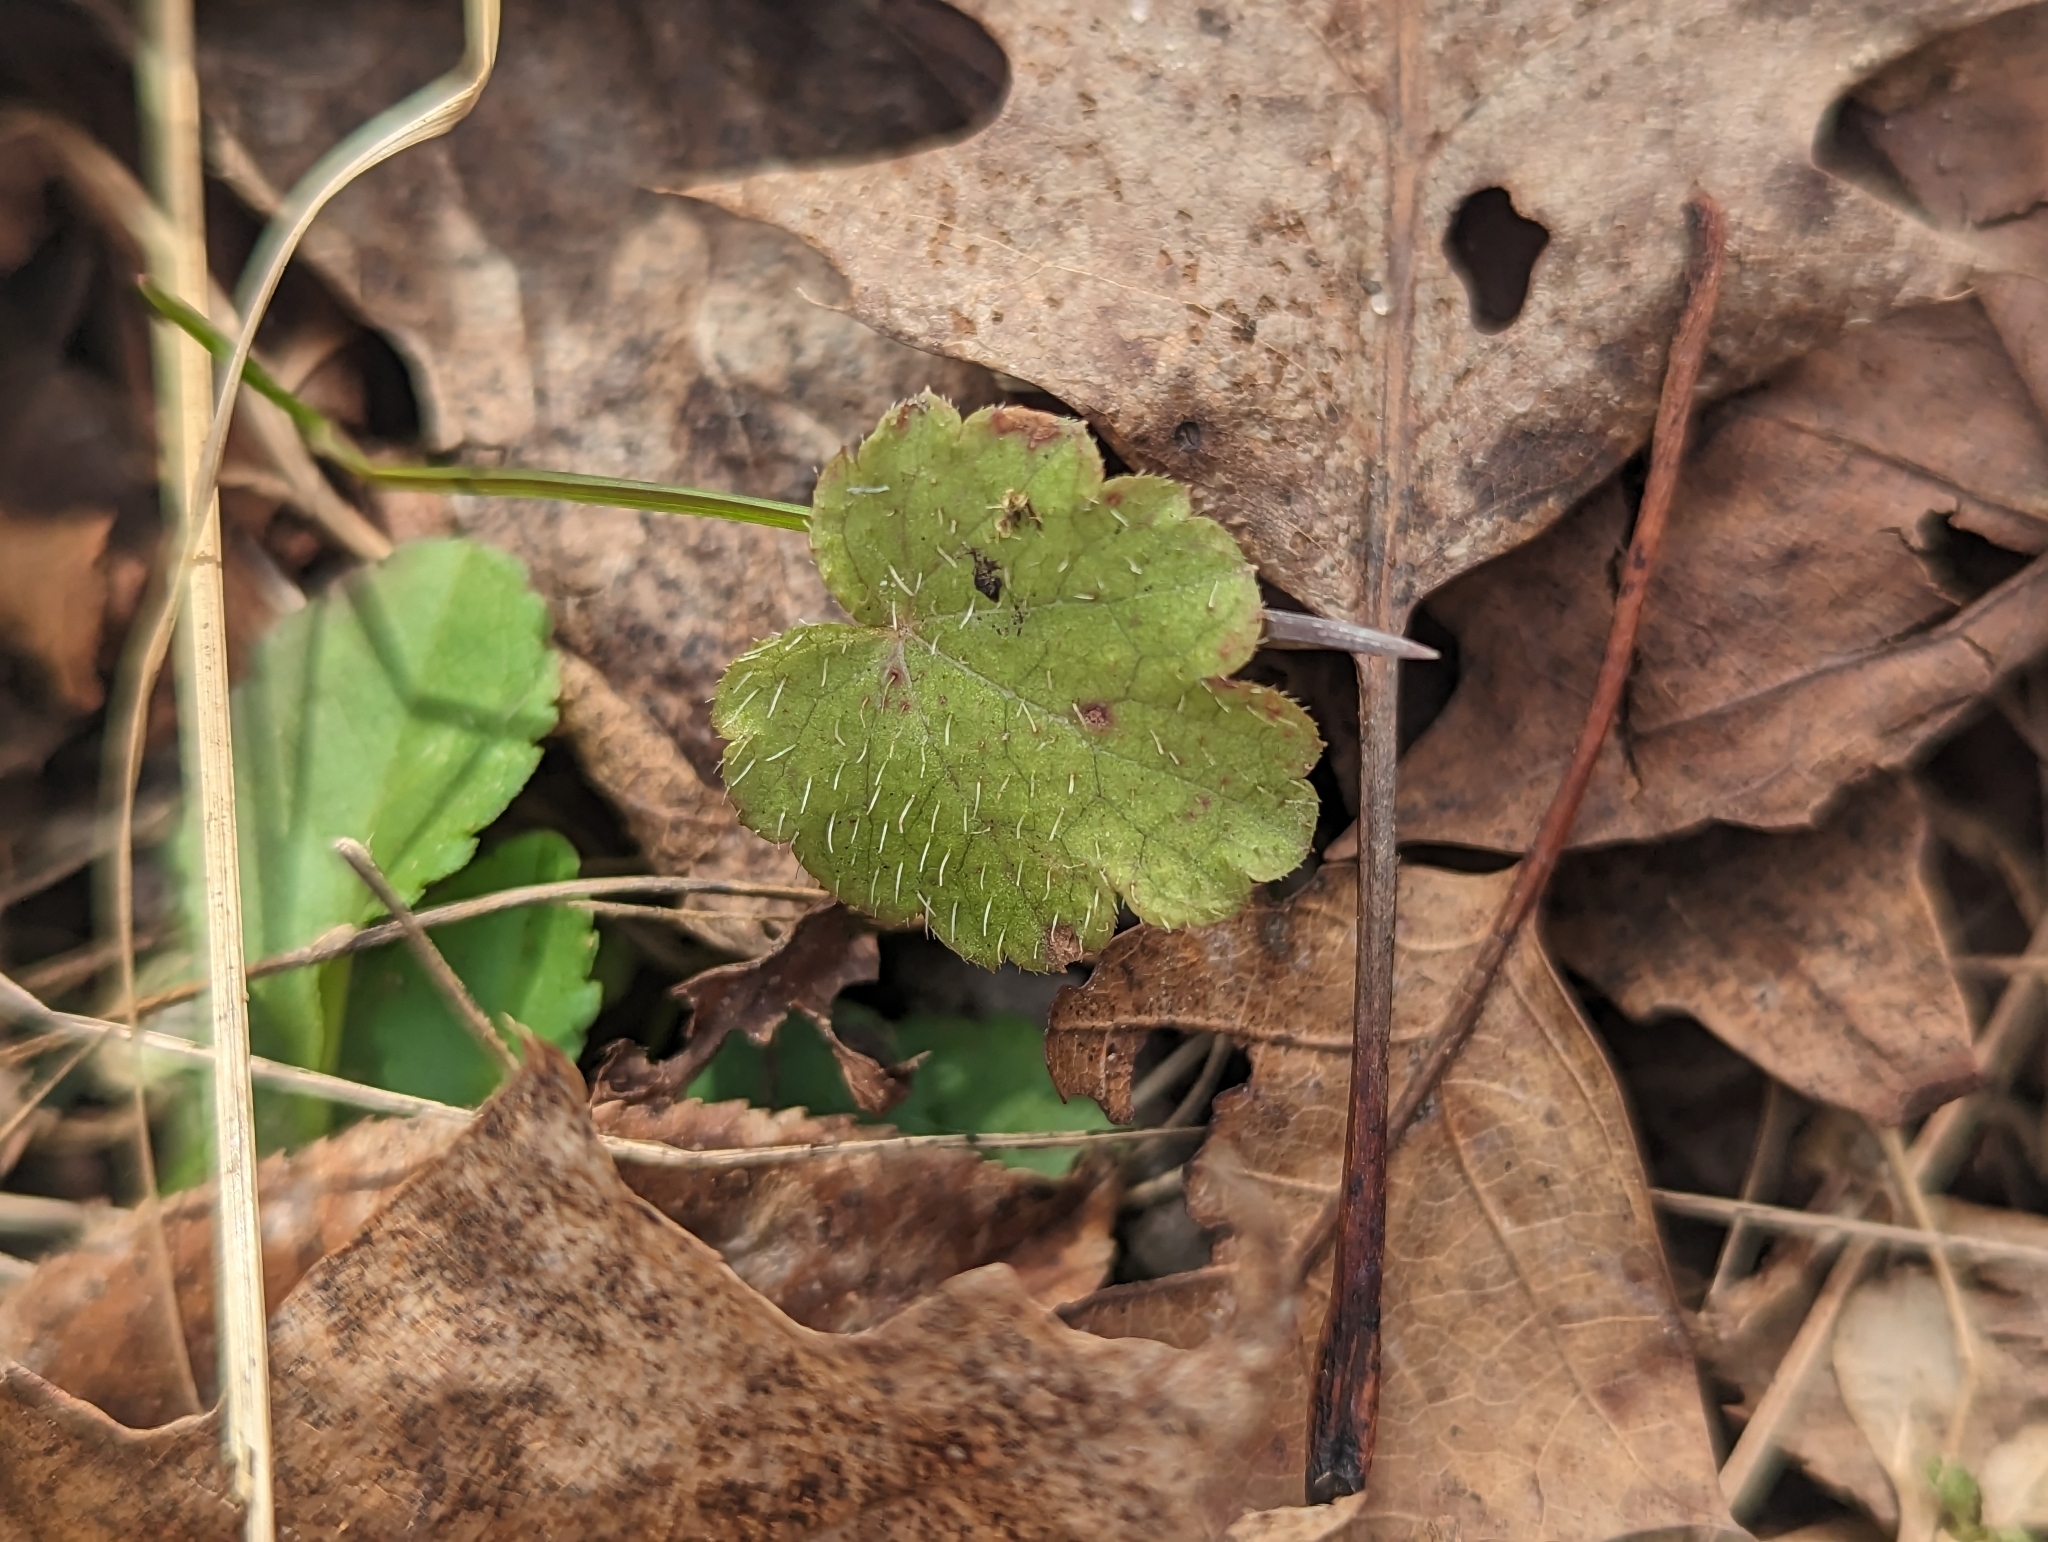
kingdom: Plantae
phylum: Tracheophyta
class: Magnoliopsida
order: Saxifragales
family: Saxifragaceae
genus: Tiarella
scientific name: Tiarella stolonifera
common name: Stoloniferous foamflower
